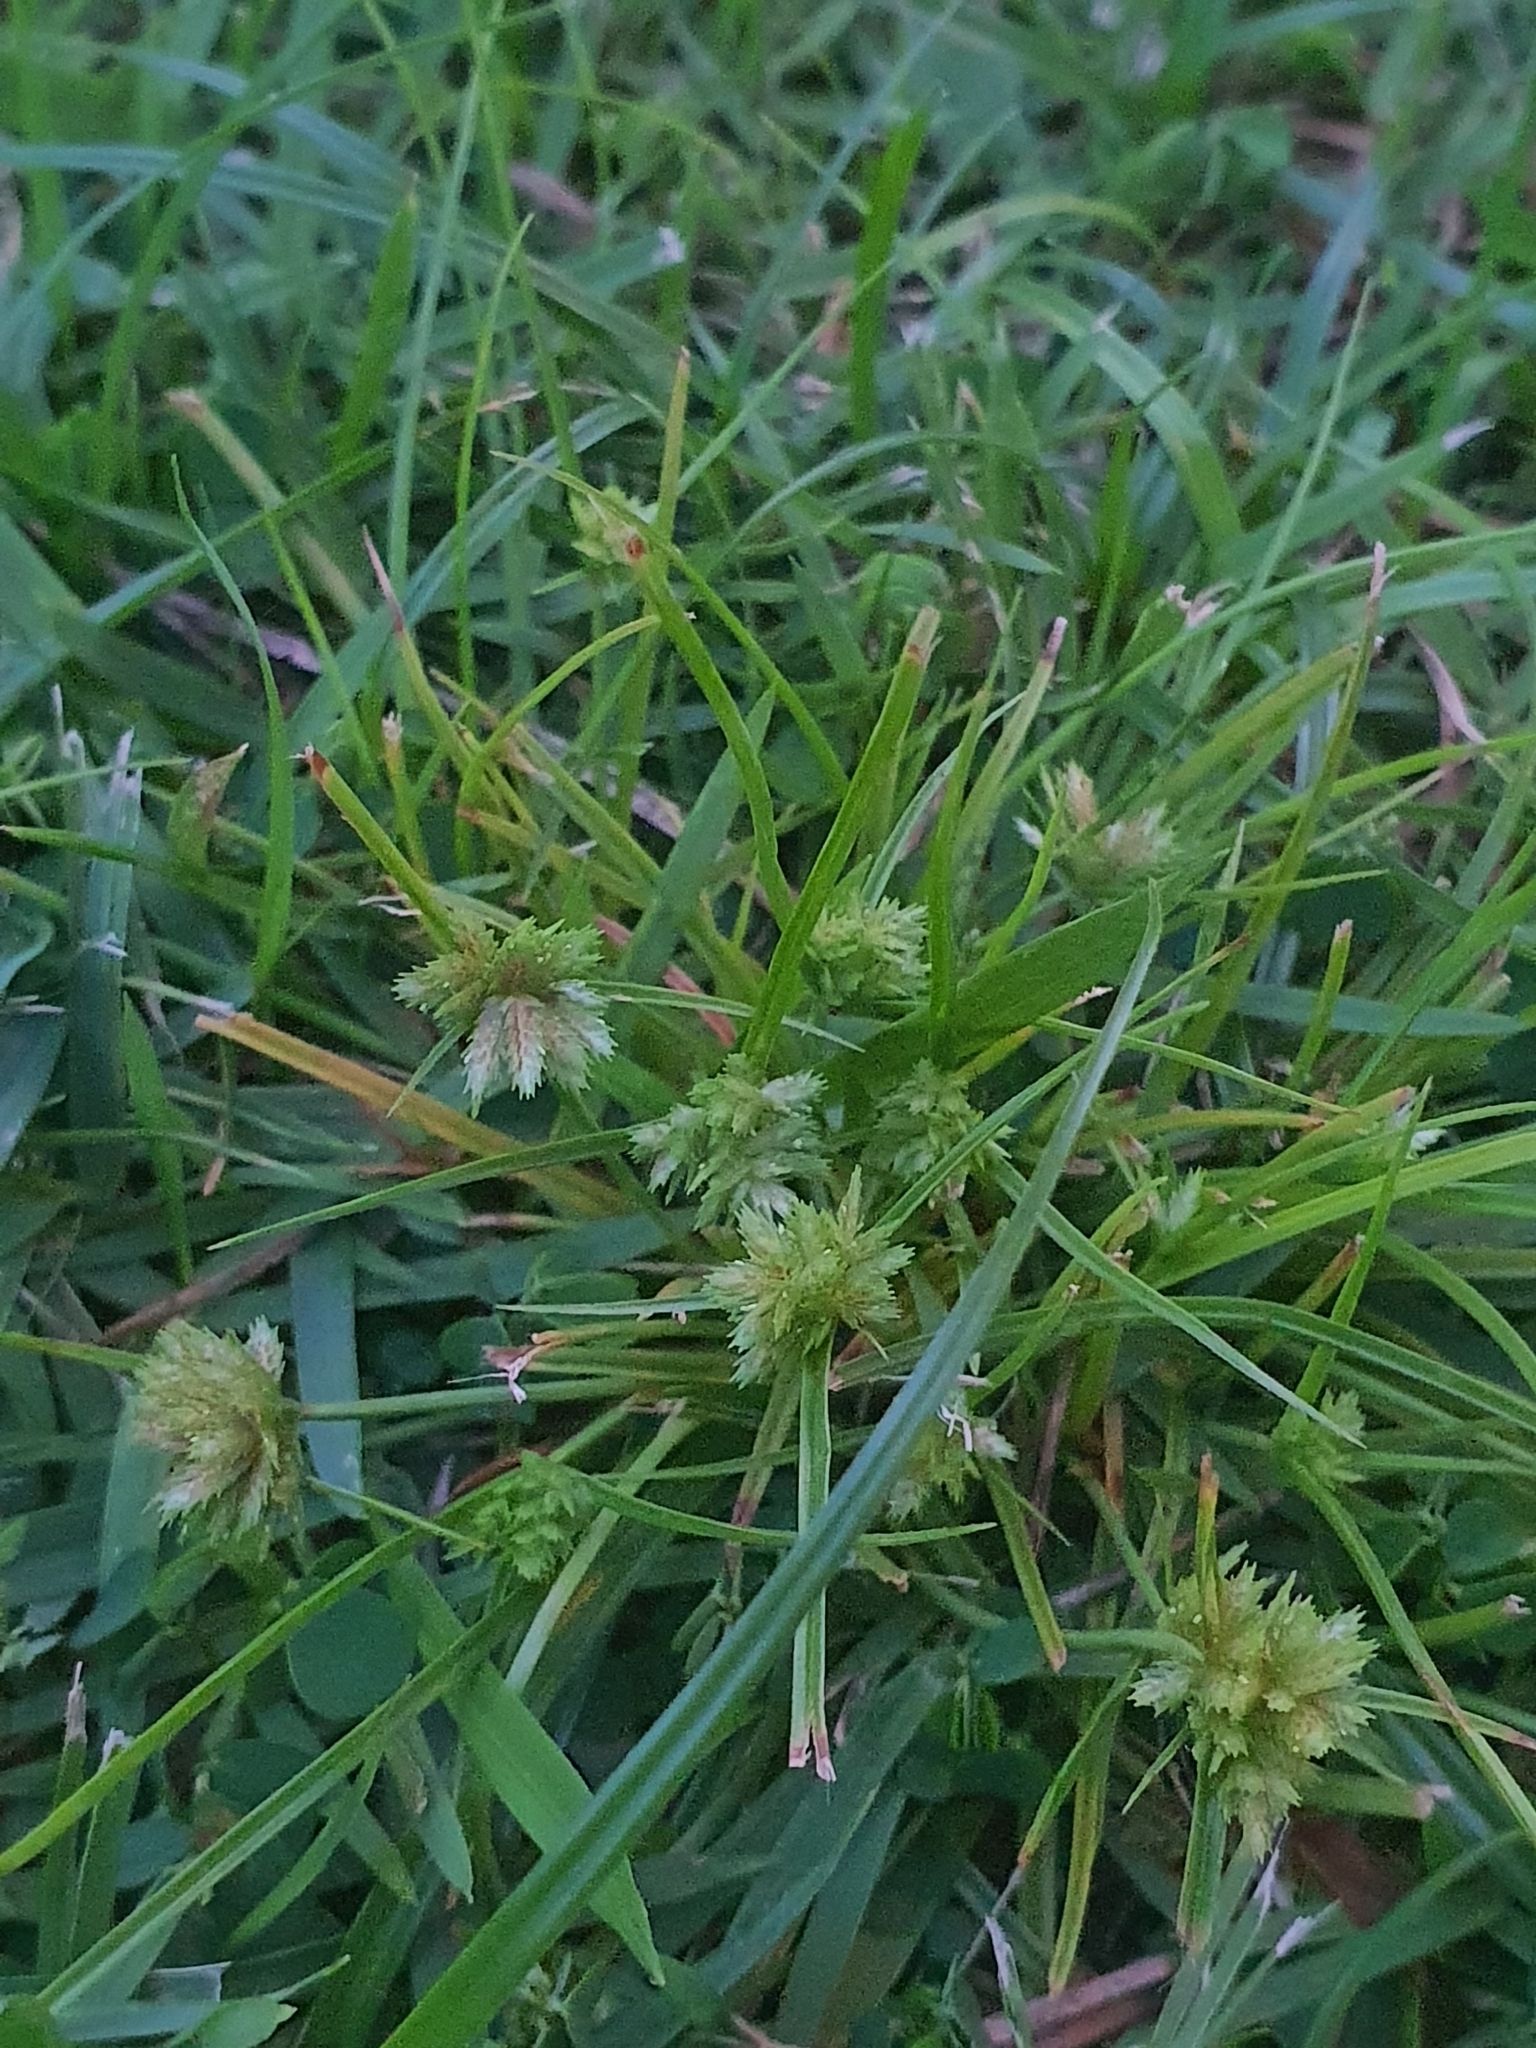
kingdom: Plantae
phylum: Tracheophyta
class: Liliopsida
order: Poales
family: Cyperaceae
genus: Cyperus
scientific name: Cyperus polystachyos
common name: Bunchy flat sedge
